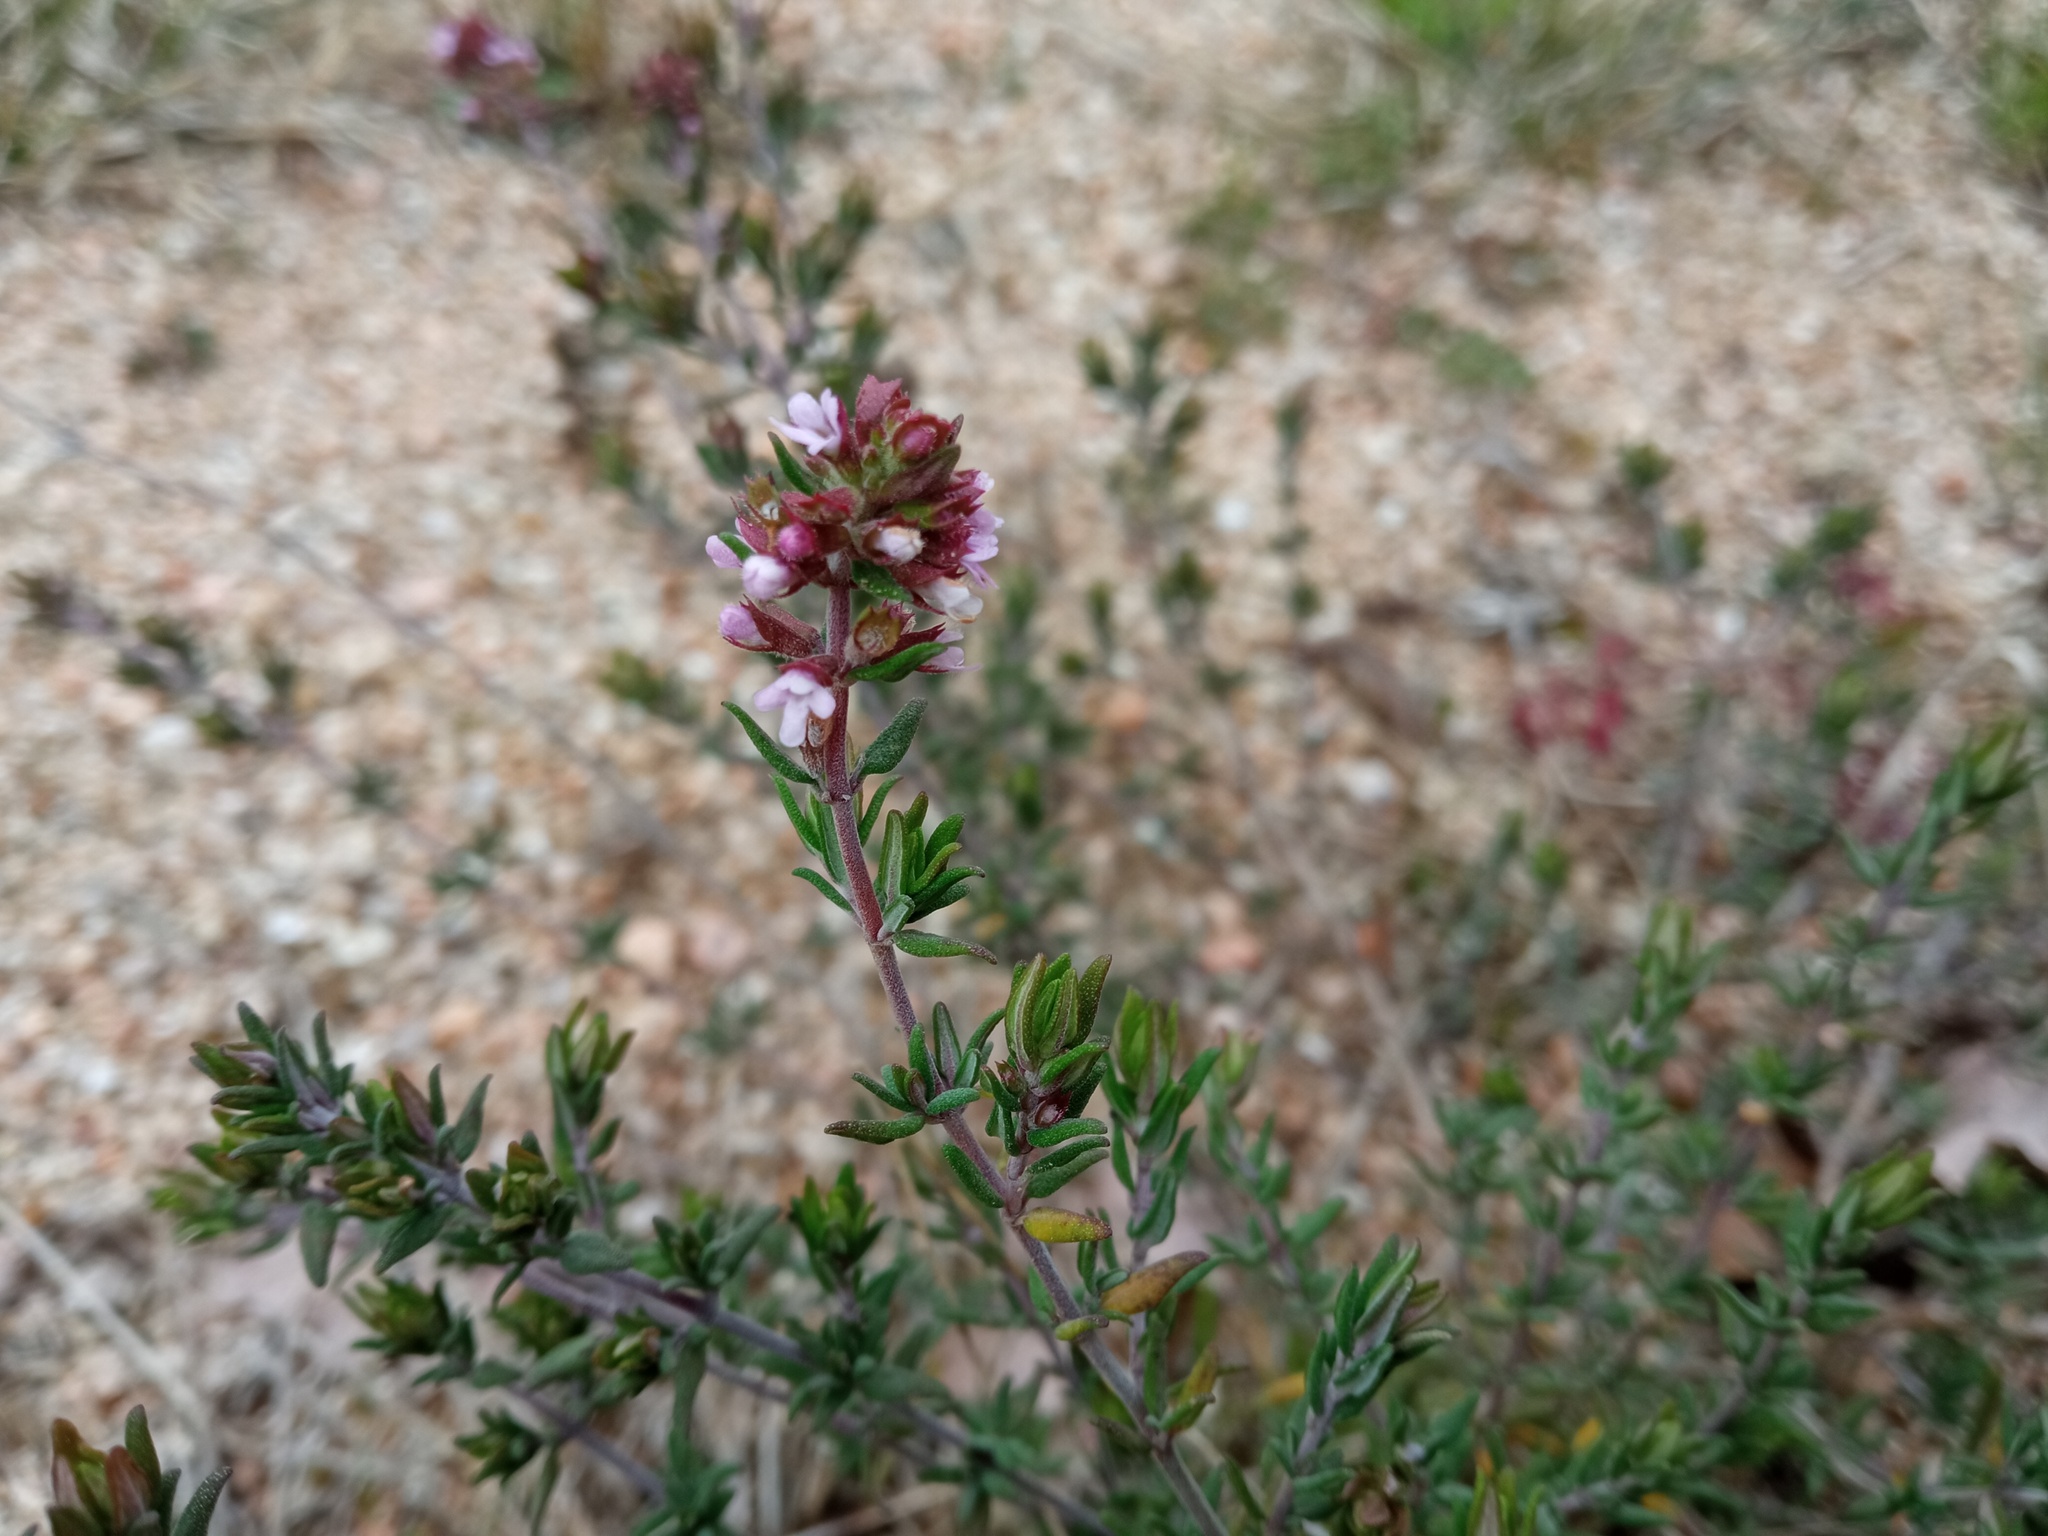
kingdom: Plantae
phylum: Tracheophyta
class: Magnoliopsida
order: Lamiales
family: Lamiaceae
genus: Thymus
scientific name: Thymus vulgaris
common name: Garden thyme
